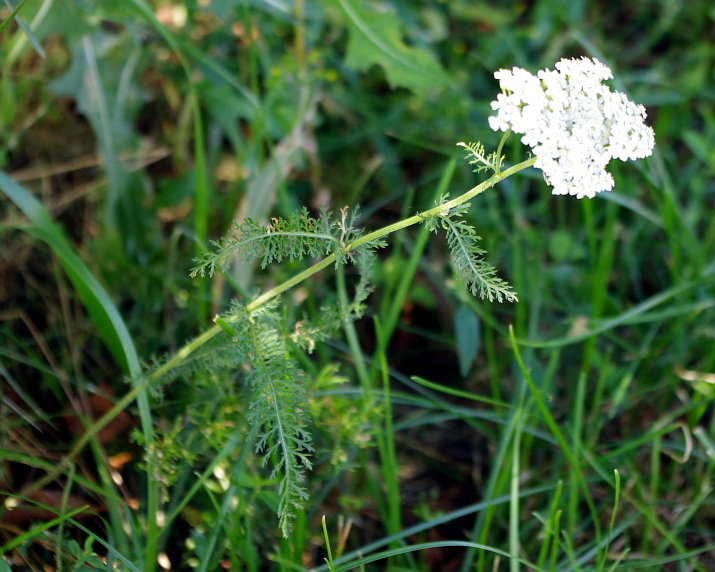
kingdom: Plantae
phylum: Tracheophyta
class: Magnoliopsida
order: Asterales
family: Asteraceae
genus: Achillea
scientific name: Achillea millefolium
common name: Yarrow
